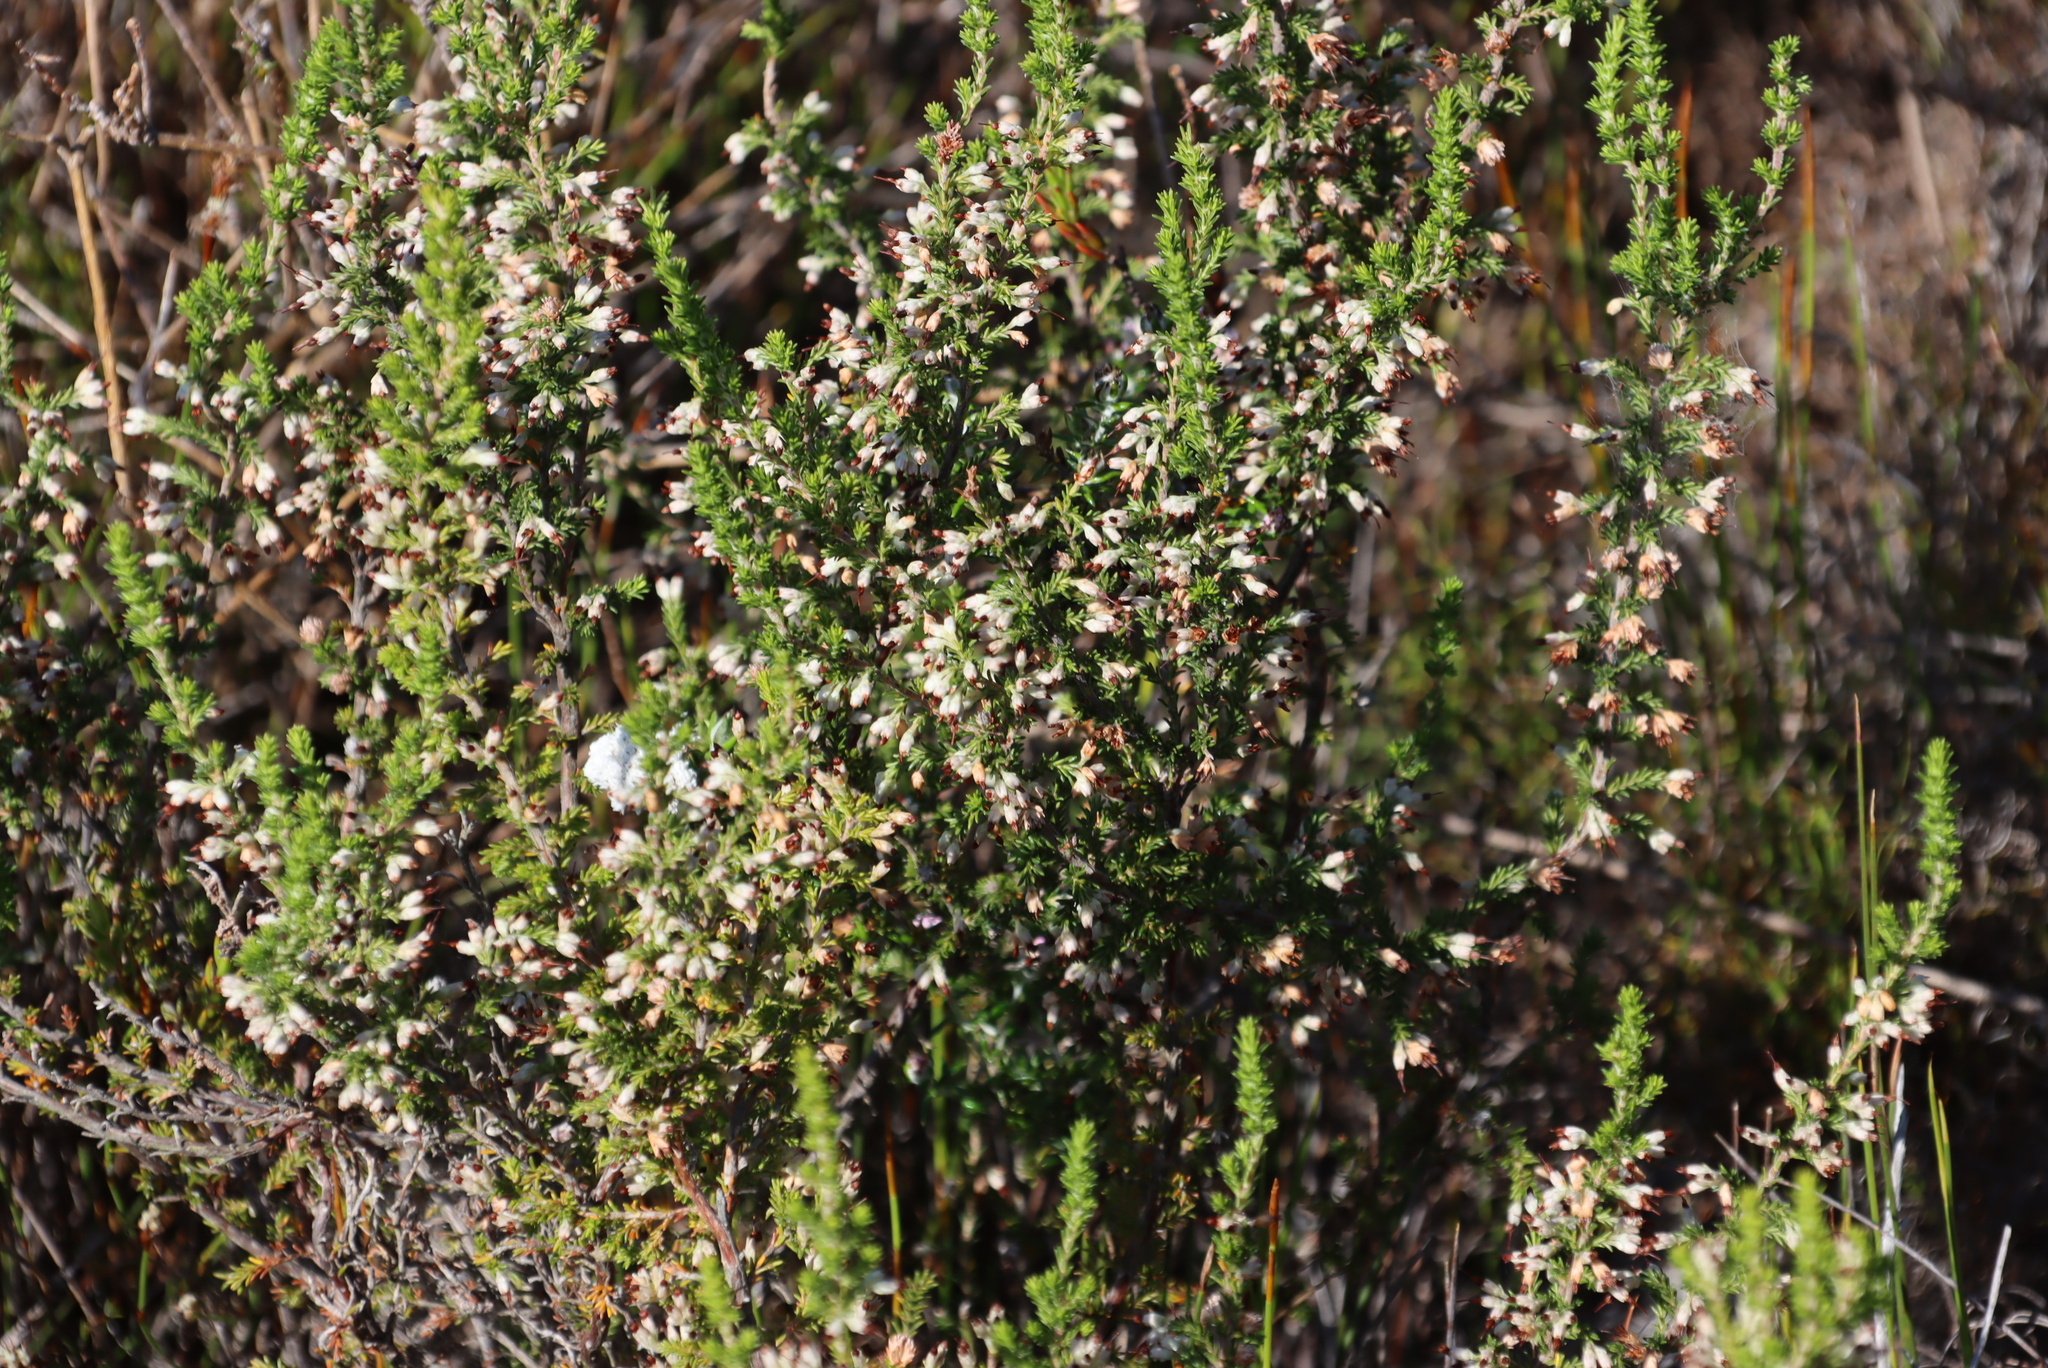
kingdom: Plantae
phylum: Tracheophyta
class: Magnoliopsida
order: Ericales
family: Ericaceae
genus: Erica
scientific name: Erica imbricata
